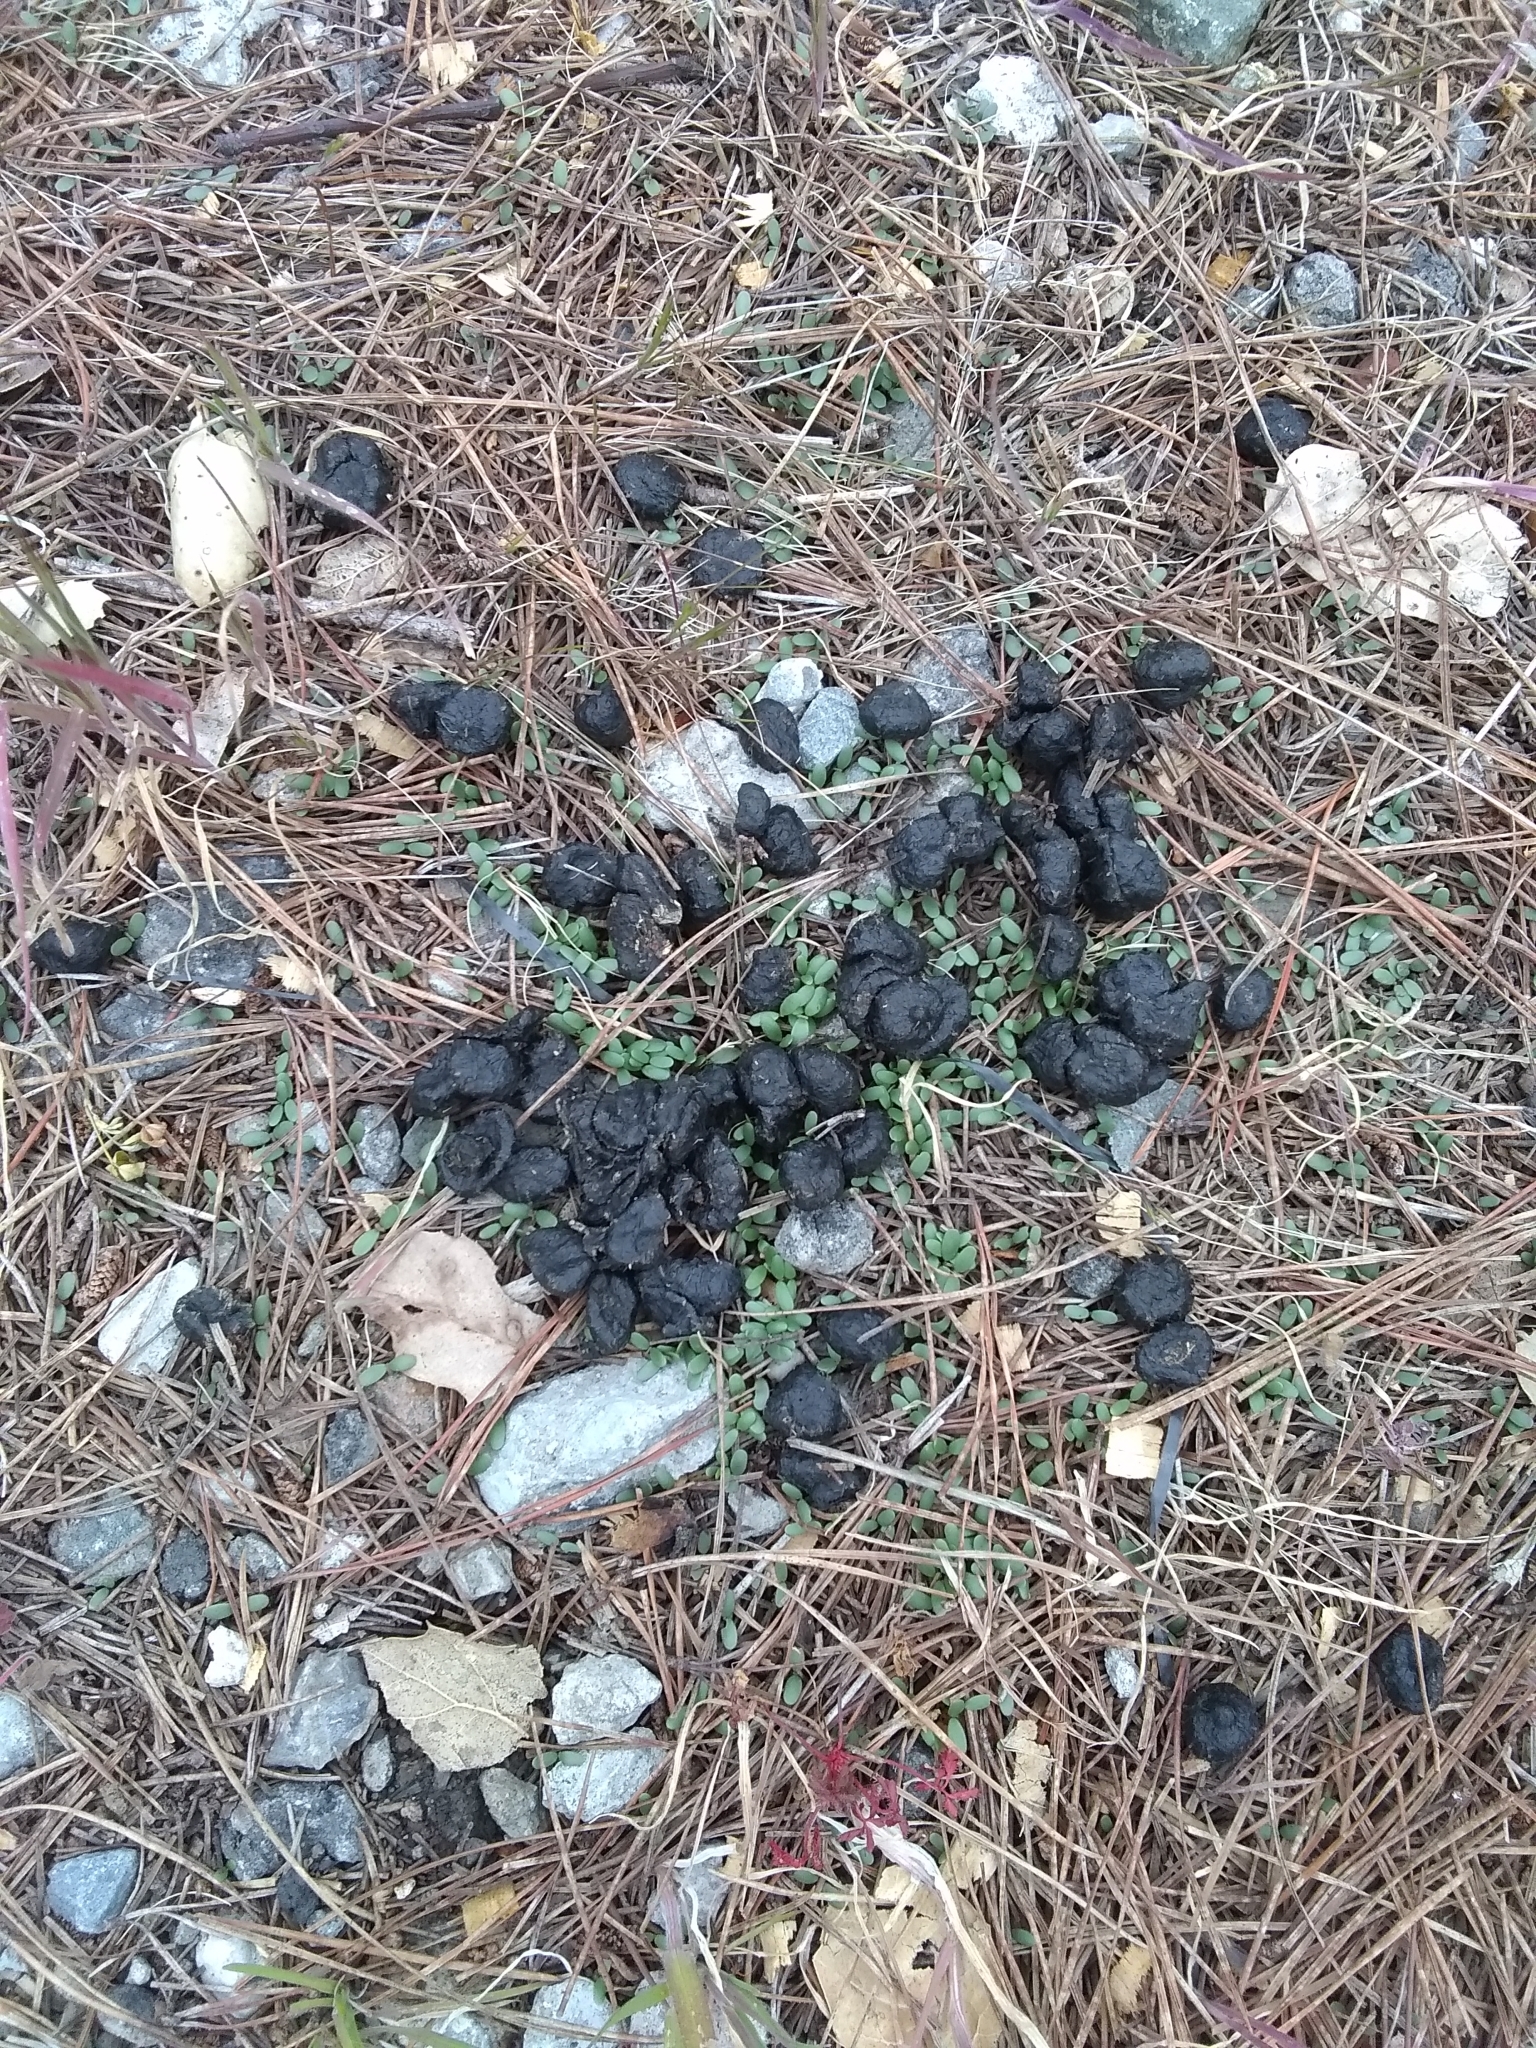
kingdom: Animalia
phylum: Chordata
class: Mammalia
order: Artiodactyla
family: Cervidae
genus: Odocoileus
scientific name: Odocoileus hemionus
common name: Mule deer
